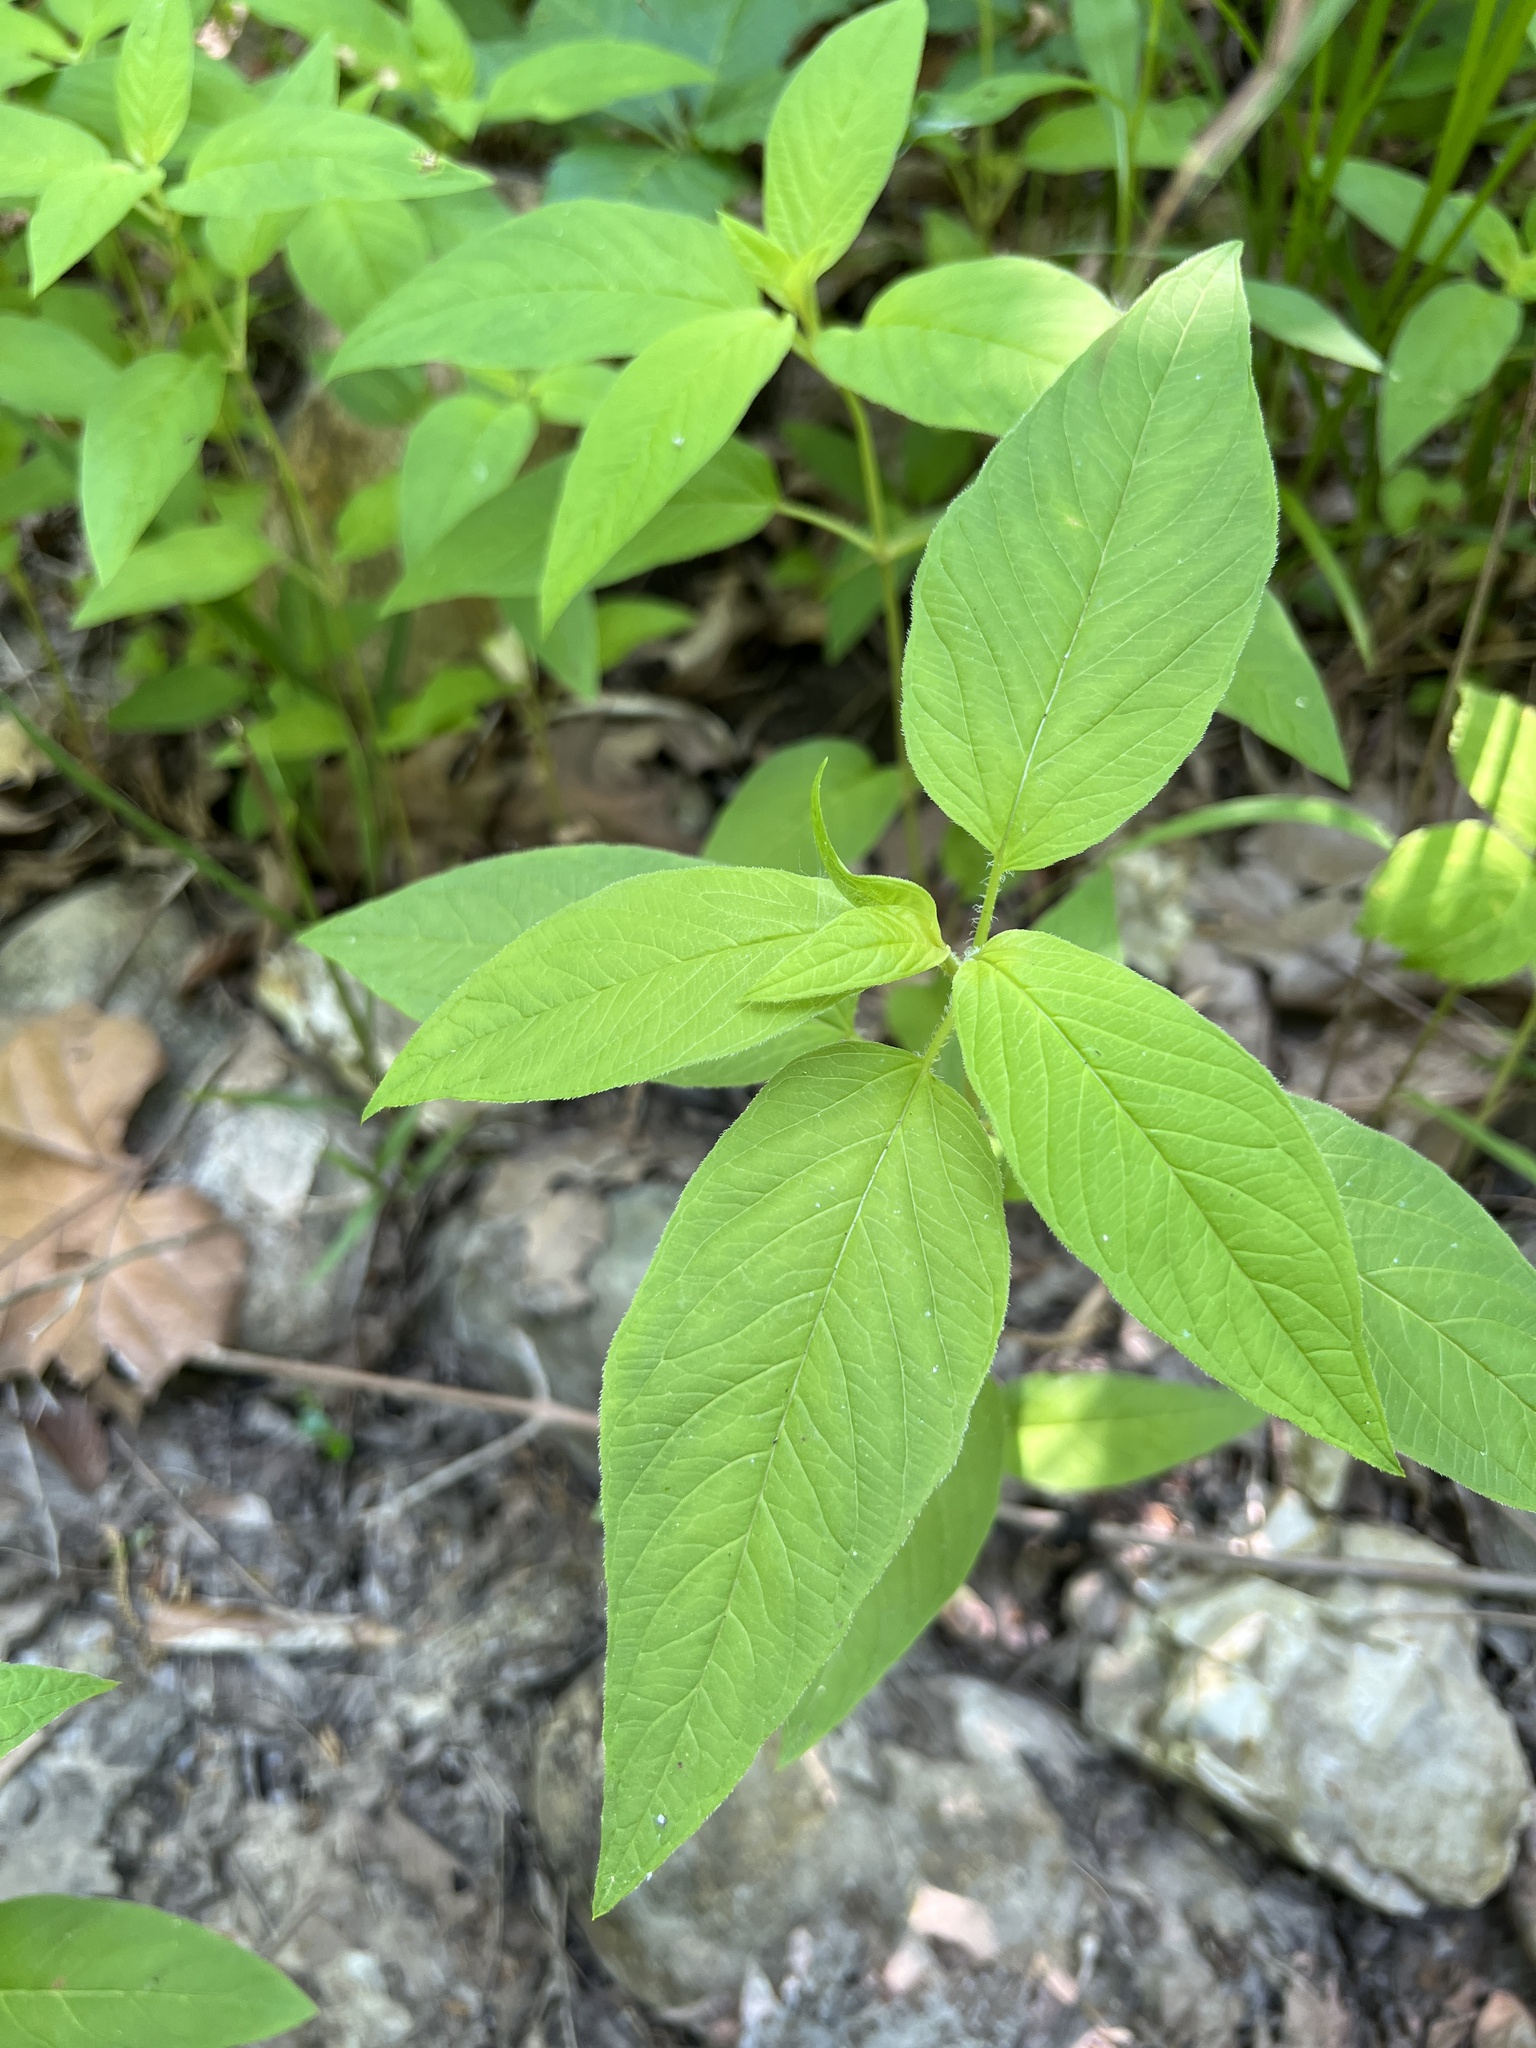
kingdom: Plantae
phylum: Tracheophyta
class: Magnoliopsida
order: Ericales
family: Primulaceae
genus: Lysimachia
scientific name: Lysimachia ciliata
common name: Fringed loosestrife
